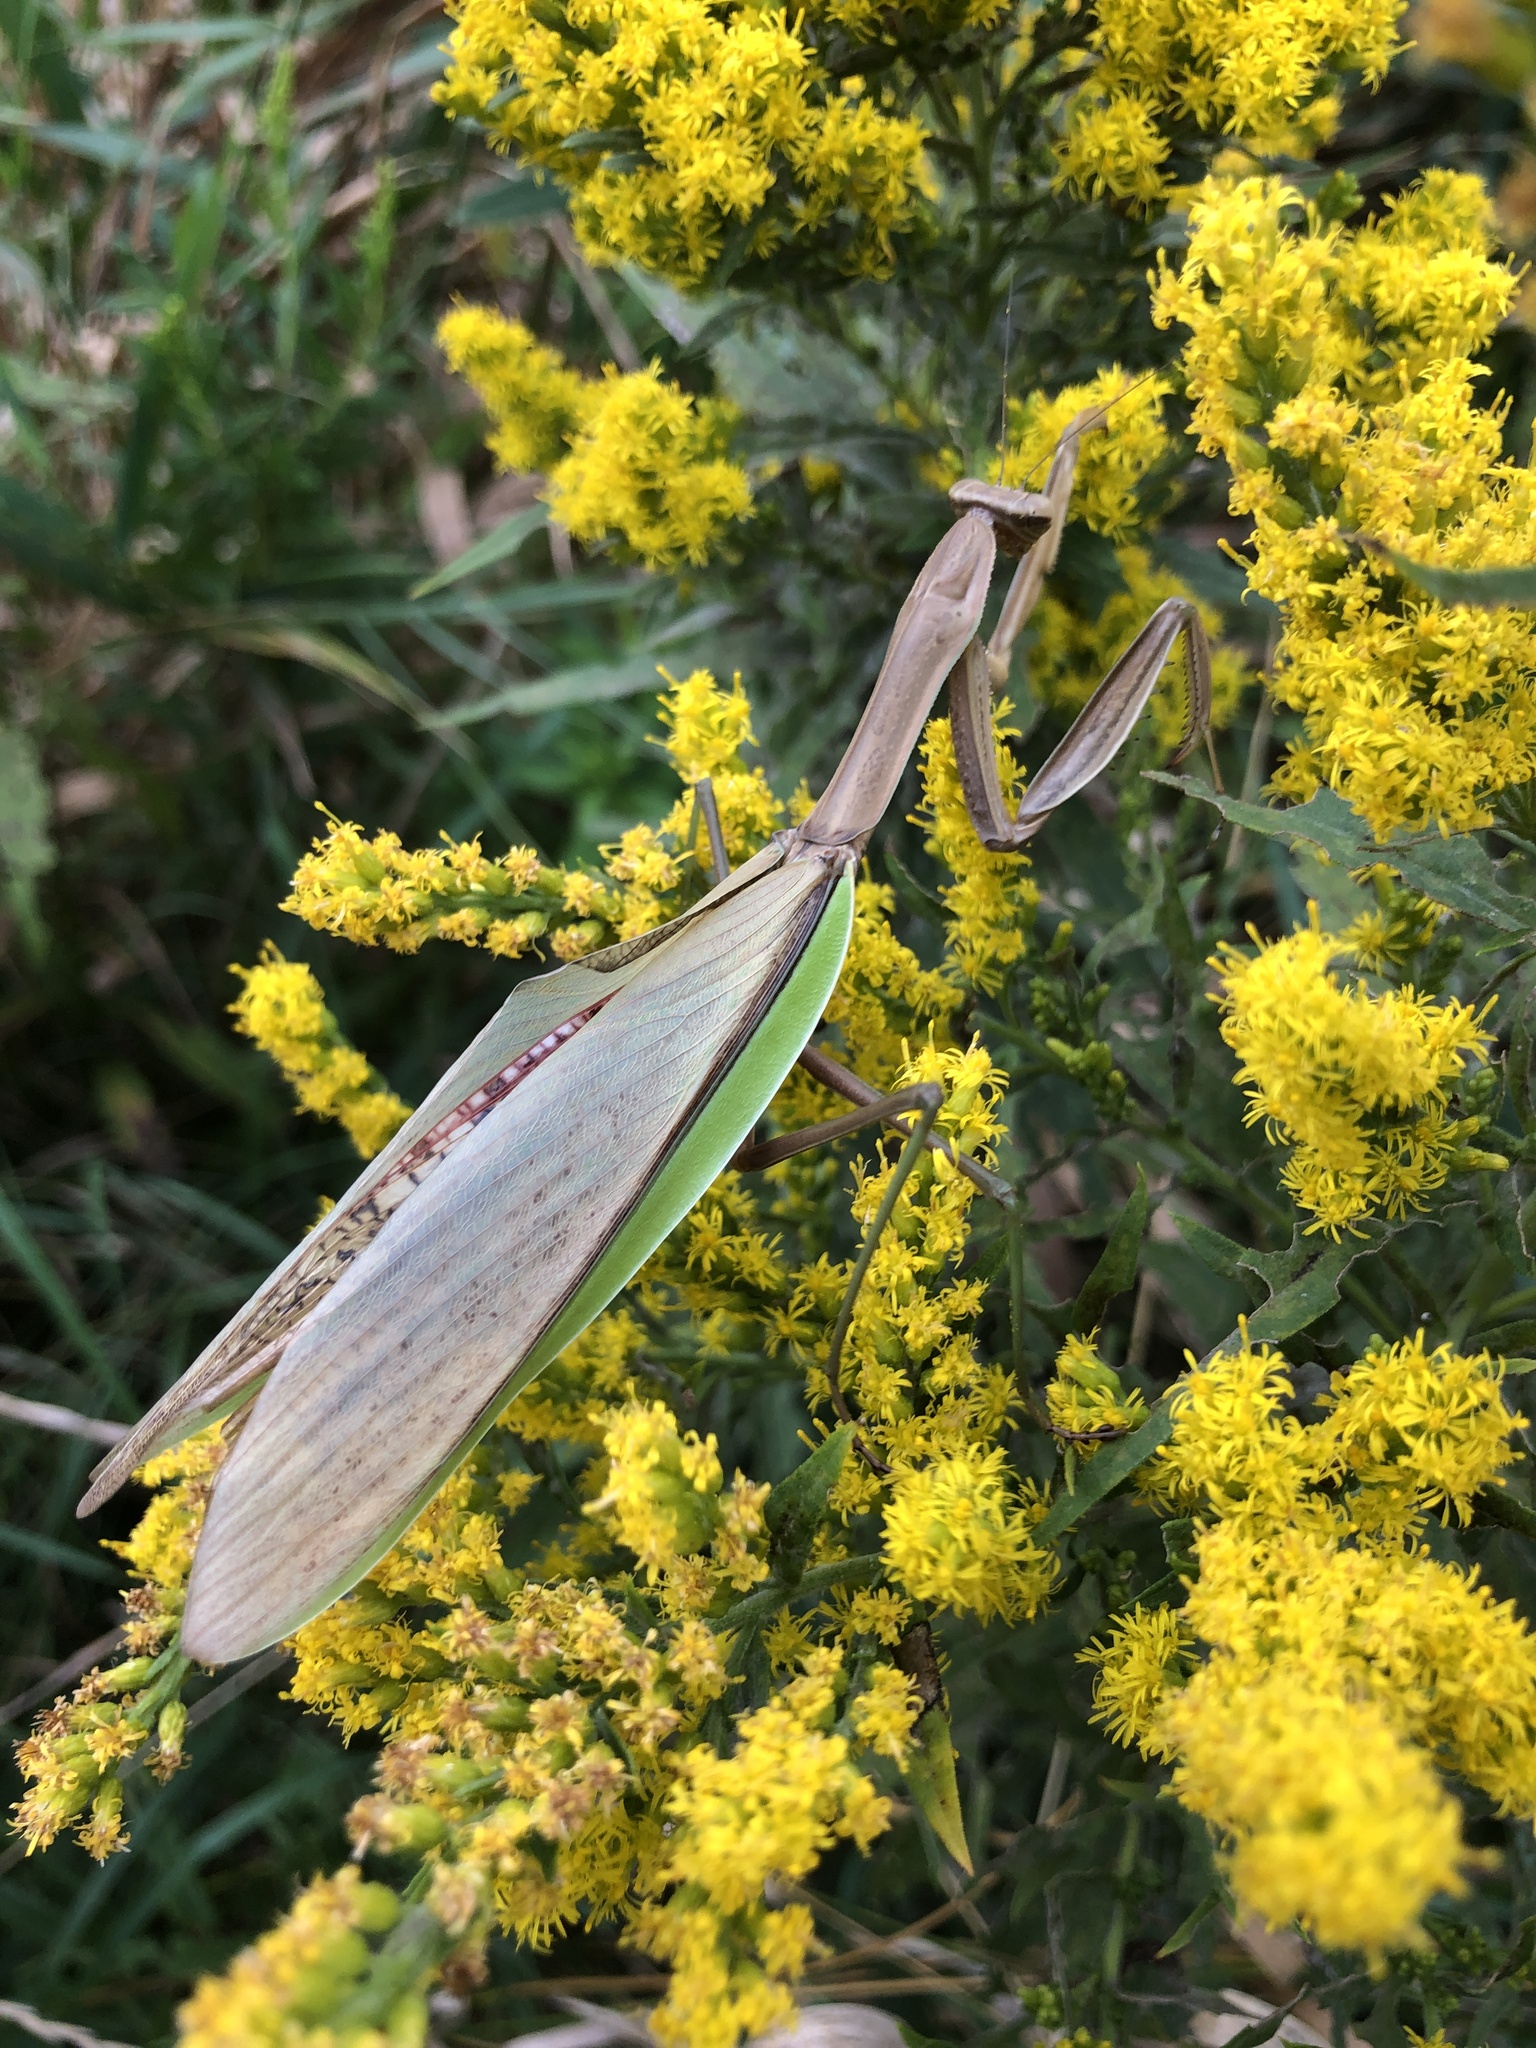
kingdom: Animalia
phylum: Arthropoda
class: Insecta
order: Mantodea
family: Mantidae
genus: Tenodera
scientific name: Tenodera sinensis
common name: Chinese mantis
